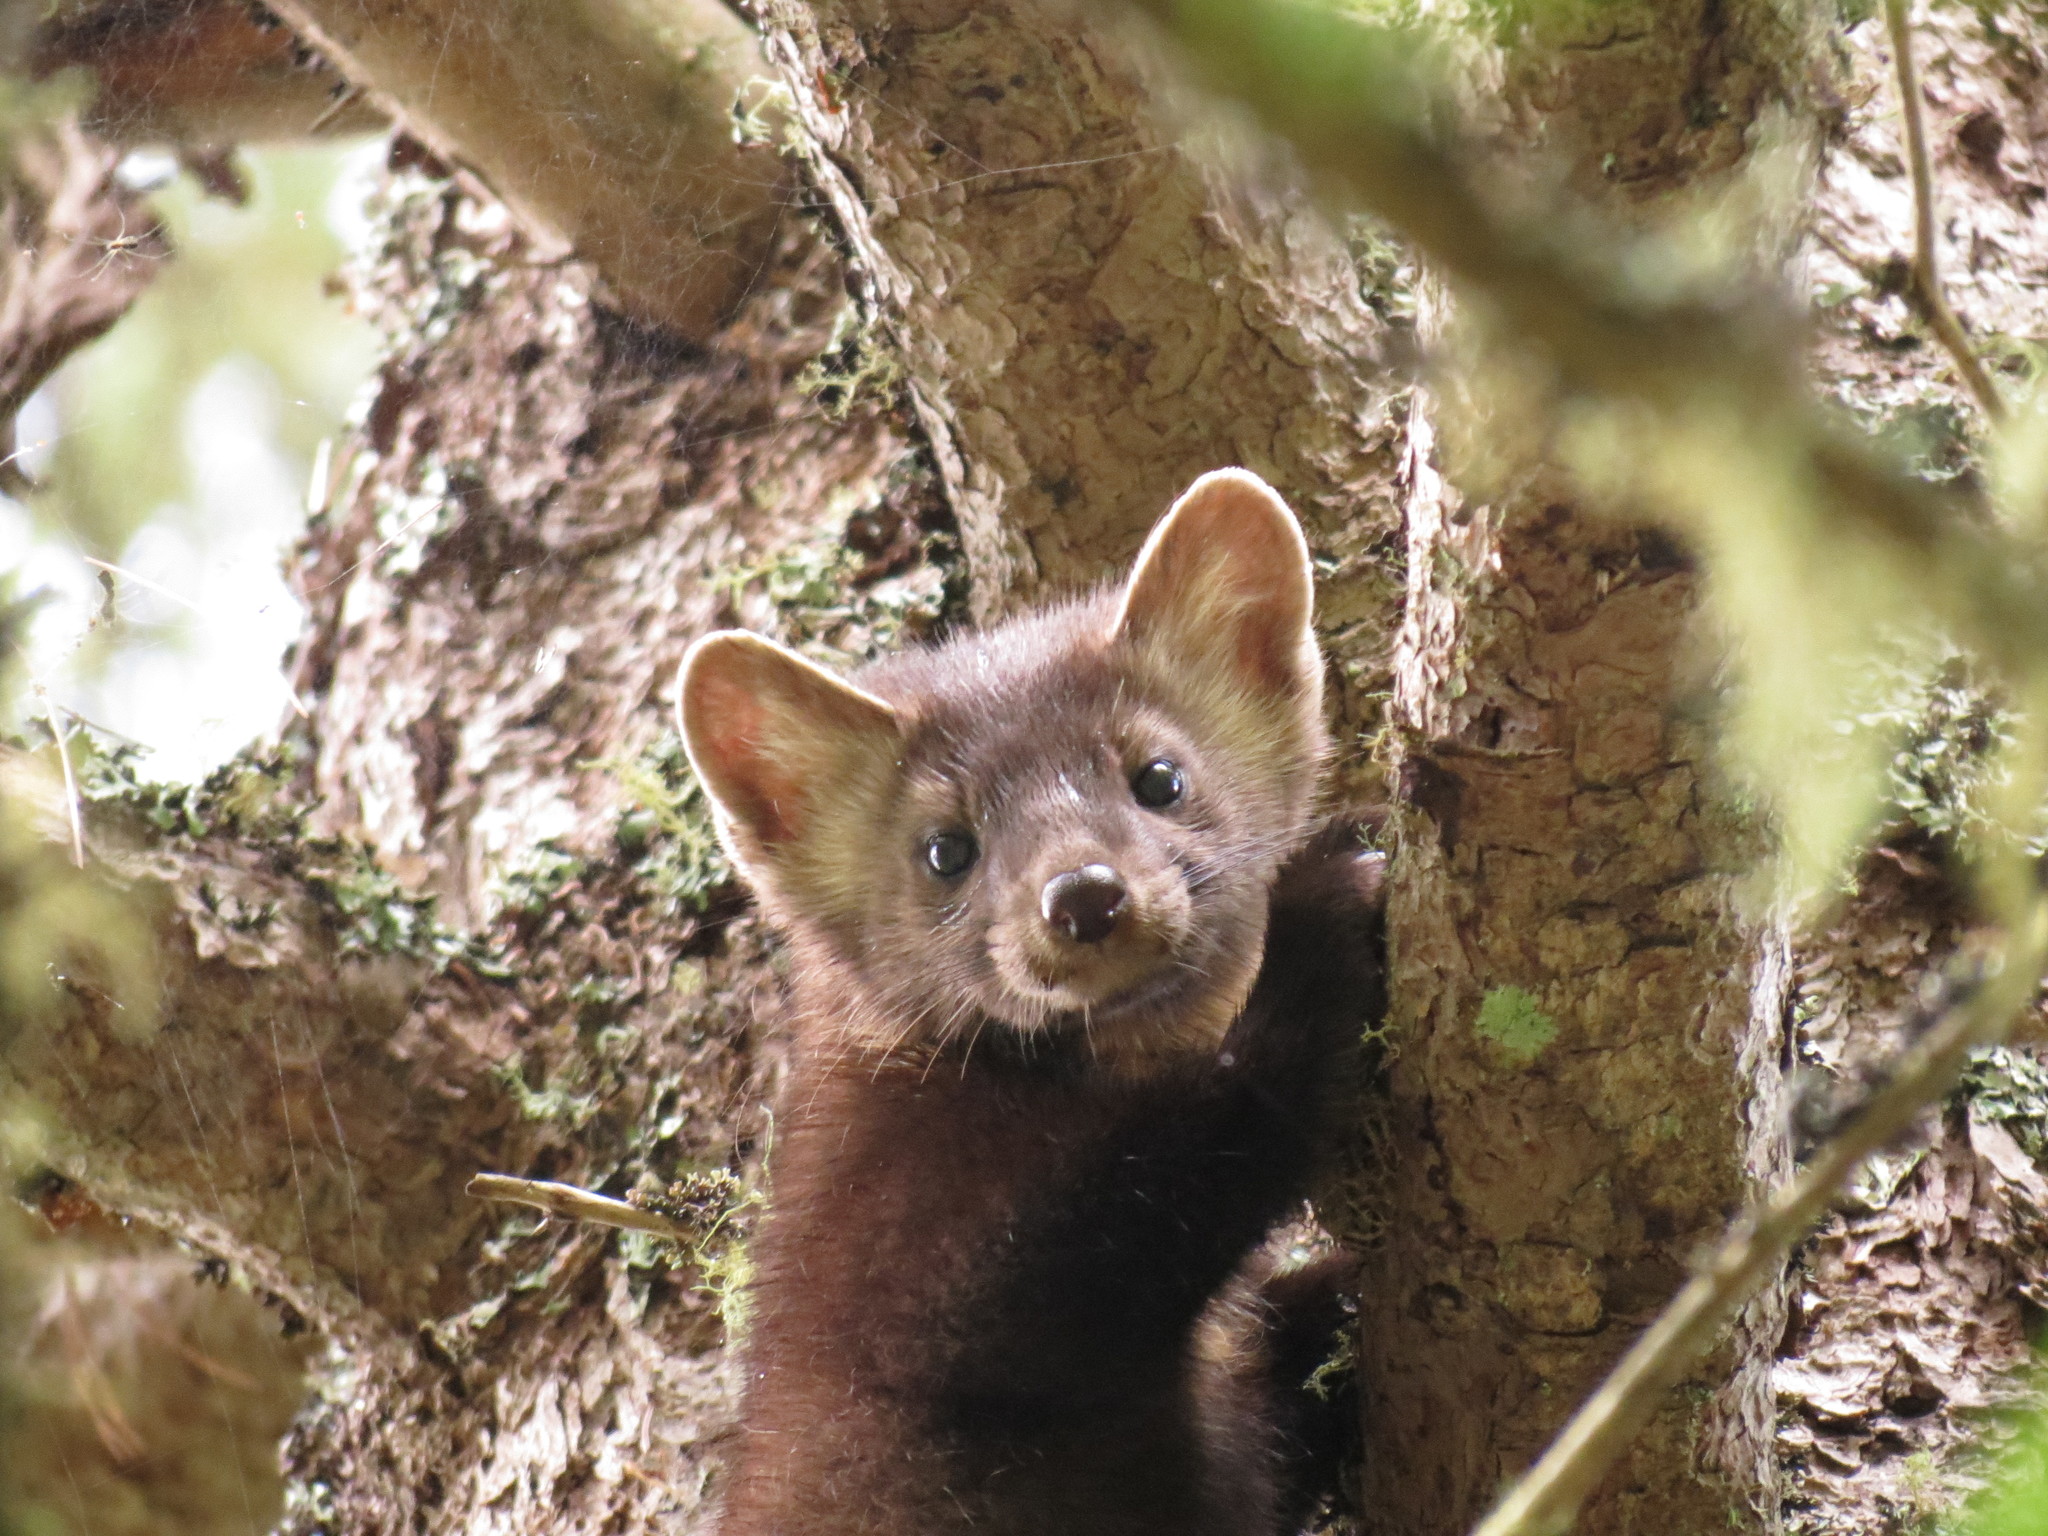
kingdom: Animalia
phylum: Chordata
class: Mammalia
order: Carnivora
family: Mustelidae
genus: Martes
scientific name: Martes americana
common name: American marten
